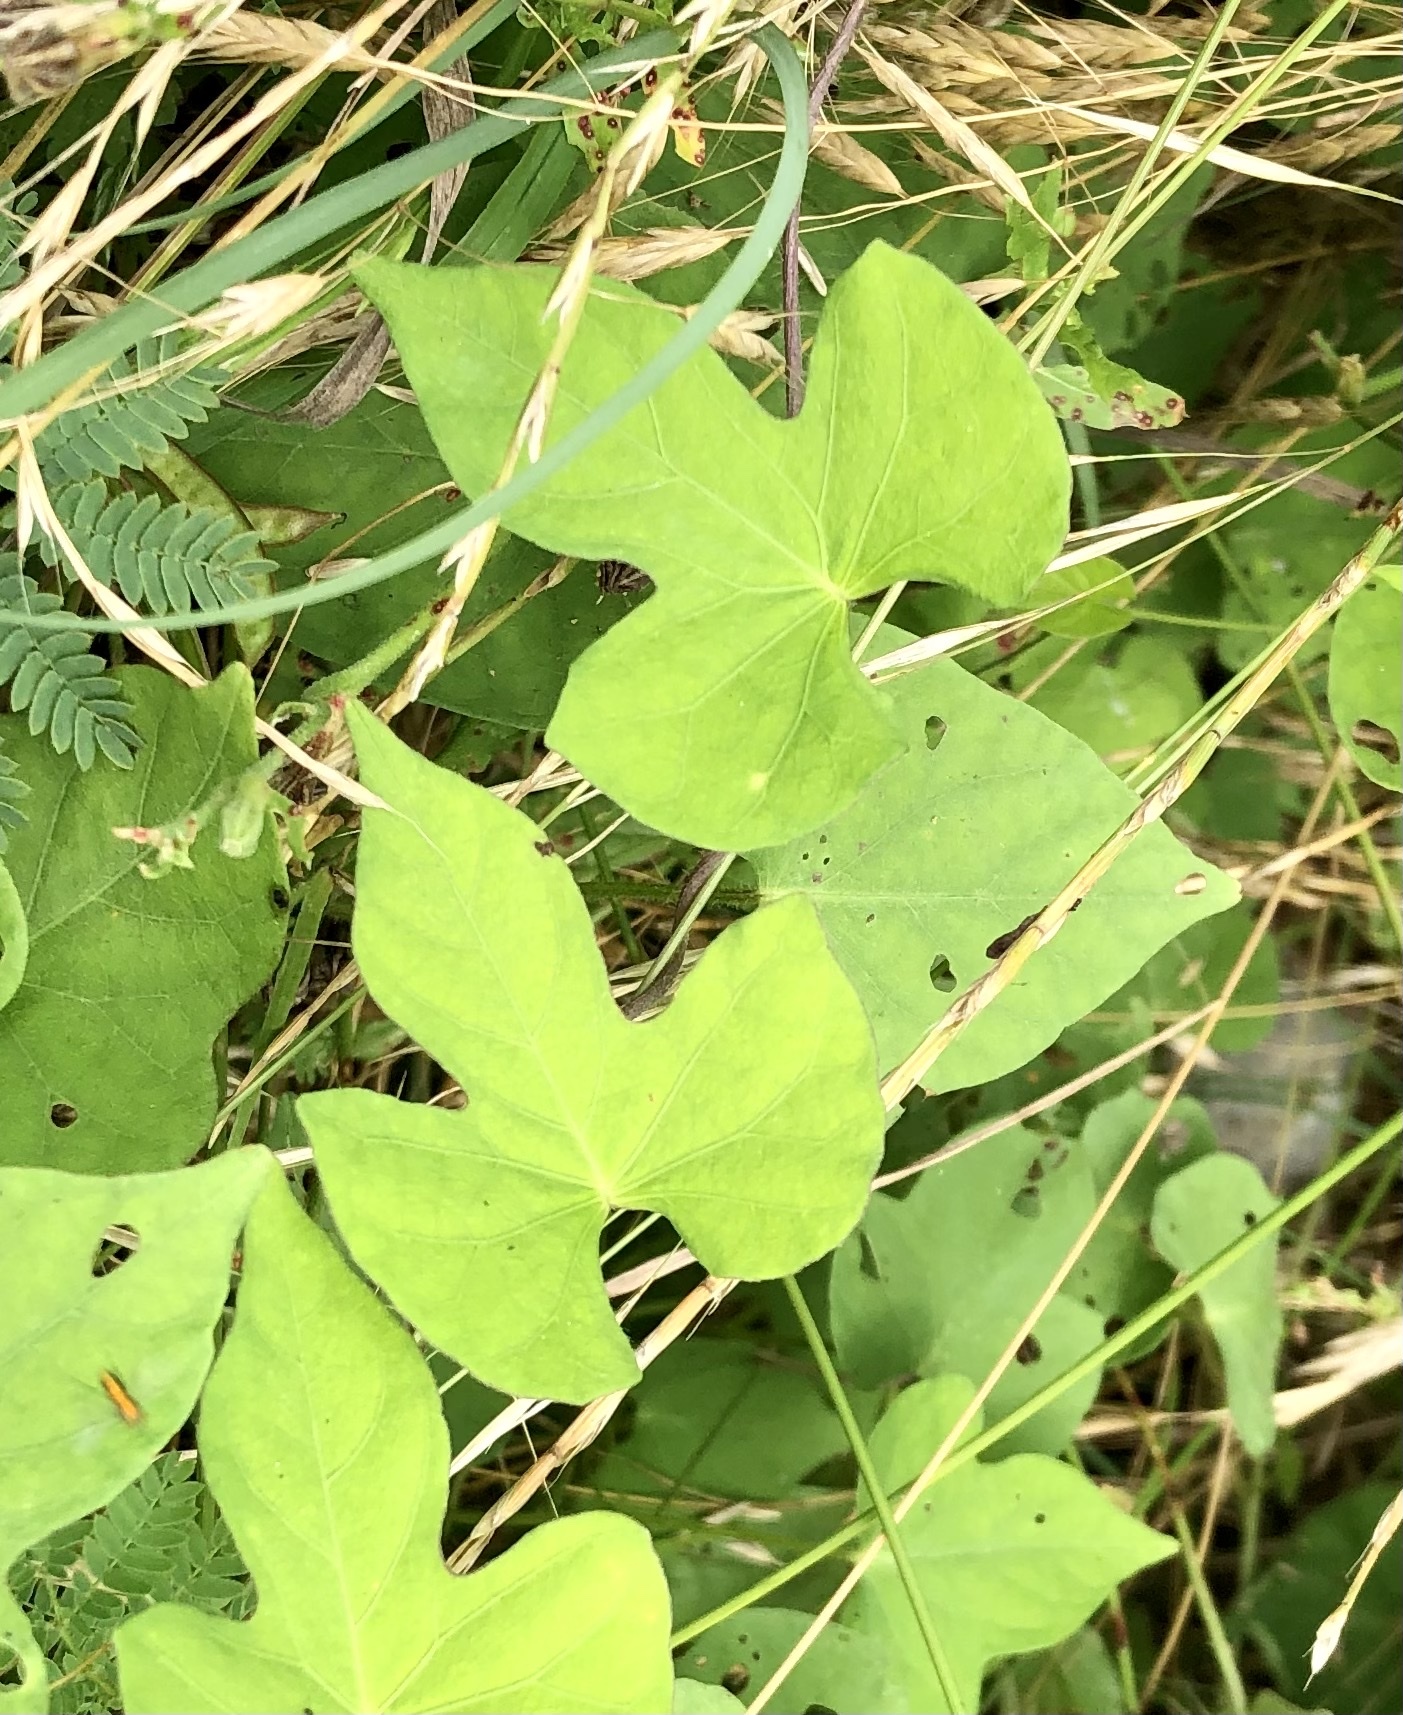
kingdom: Plantae
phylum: Tracheophyta
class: Magnoliopsida
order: Solanales
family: Convolvulaceae
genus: Ipomoea
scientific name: Ipomoea cordatotriloba
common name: Cotton morning glory
